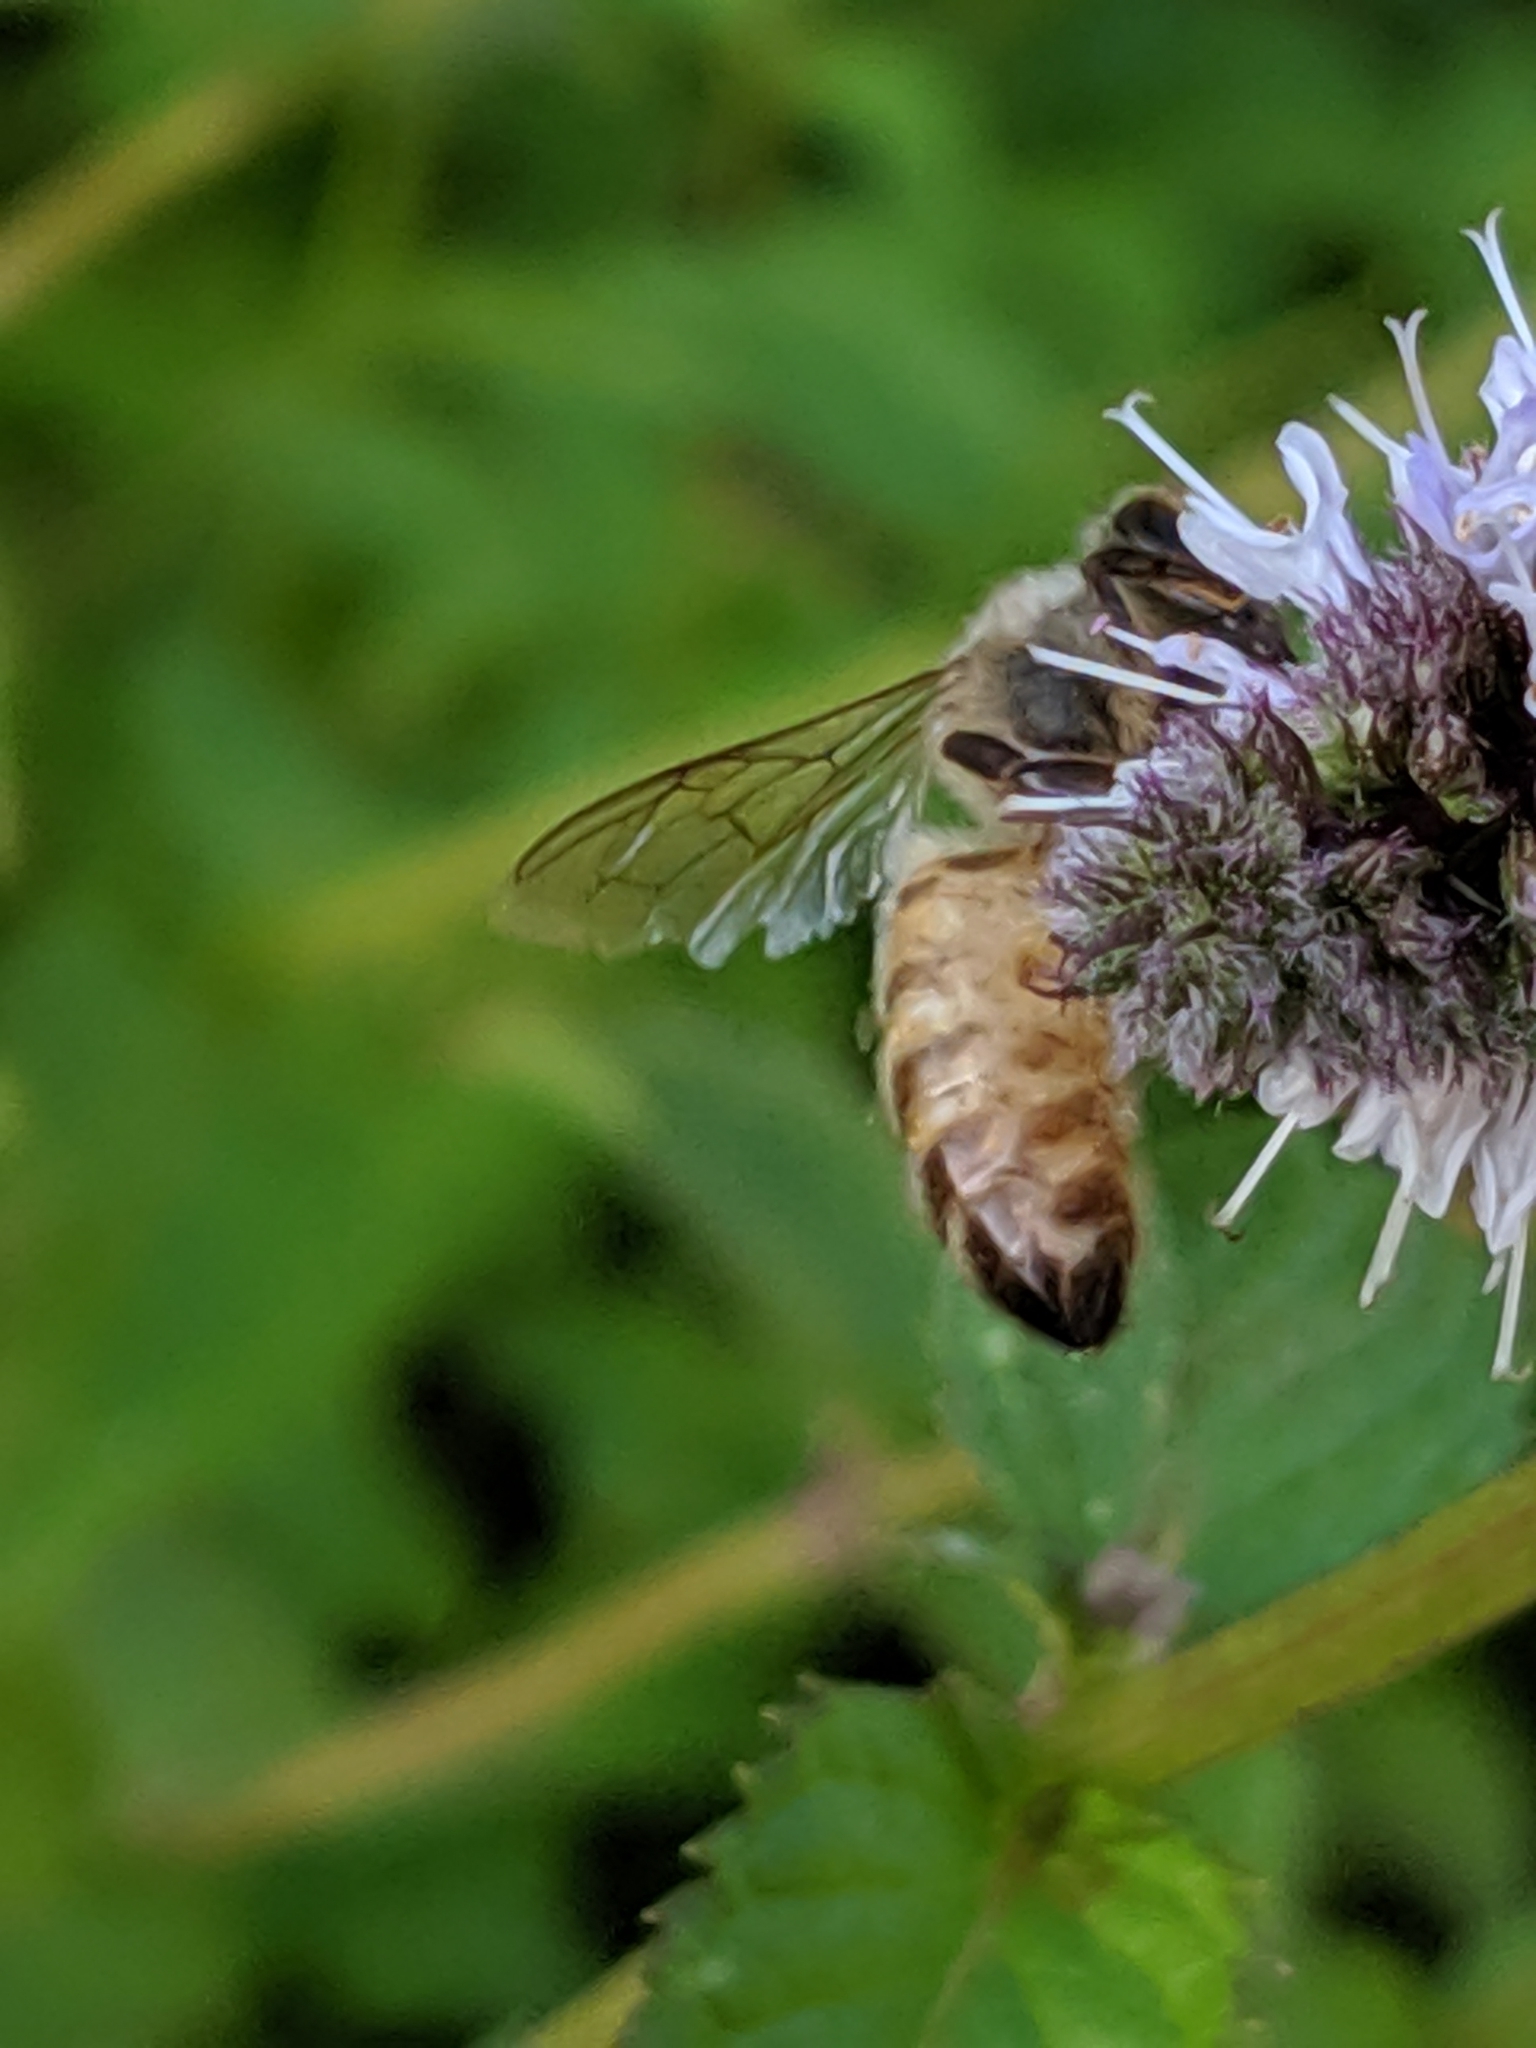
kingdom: Animalia
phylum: Arthropoda
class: Insecta
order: Hymenoptera
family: Apidae
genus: Apis
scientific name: Apis mellifera
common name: Honey bee
